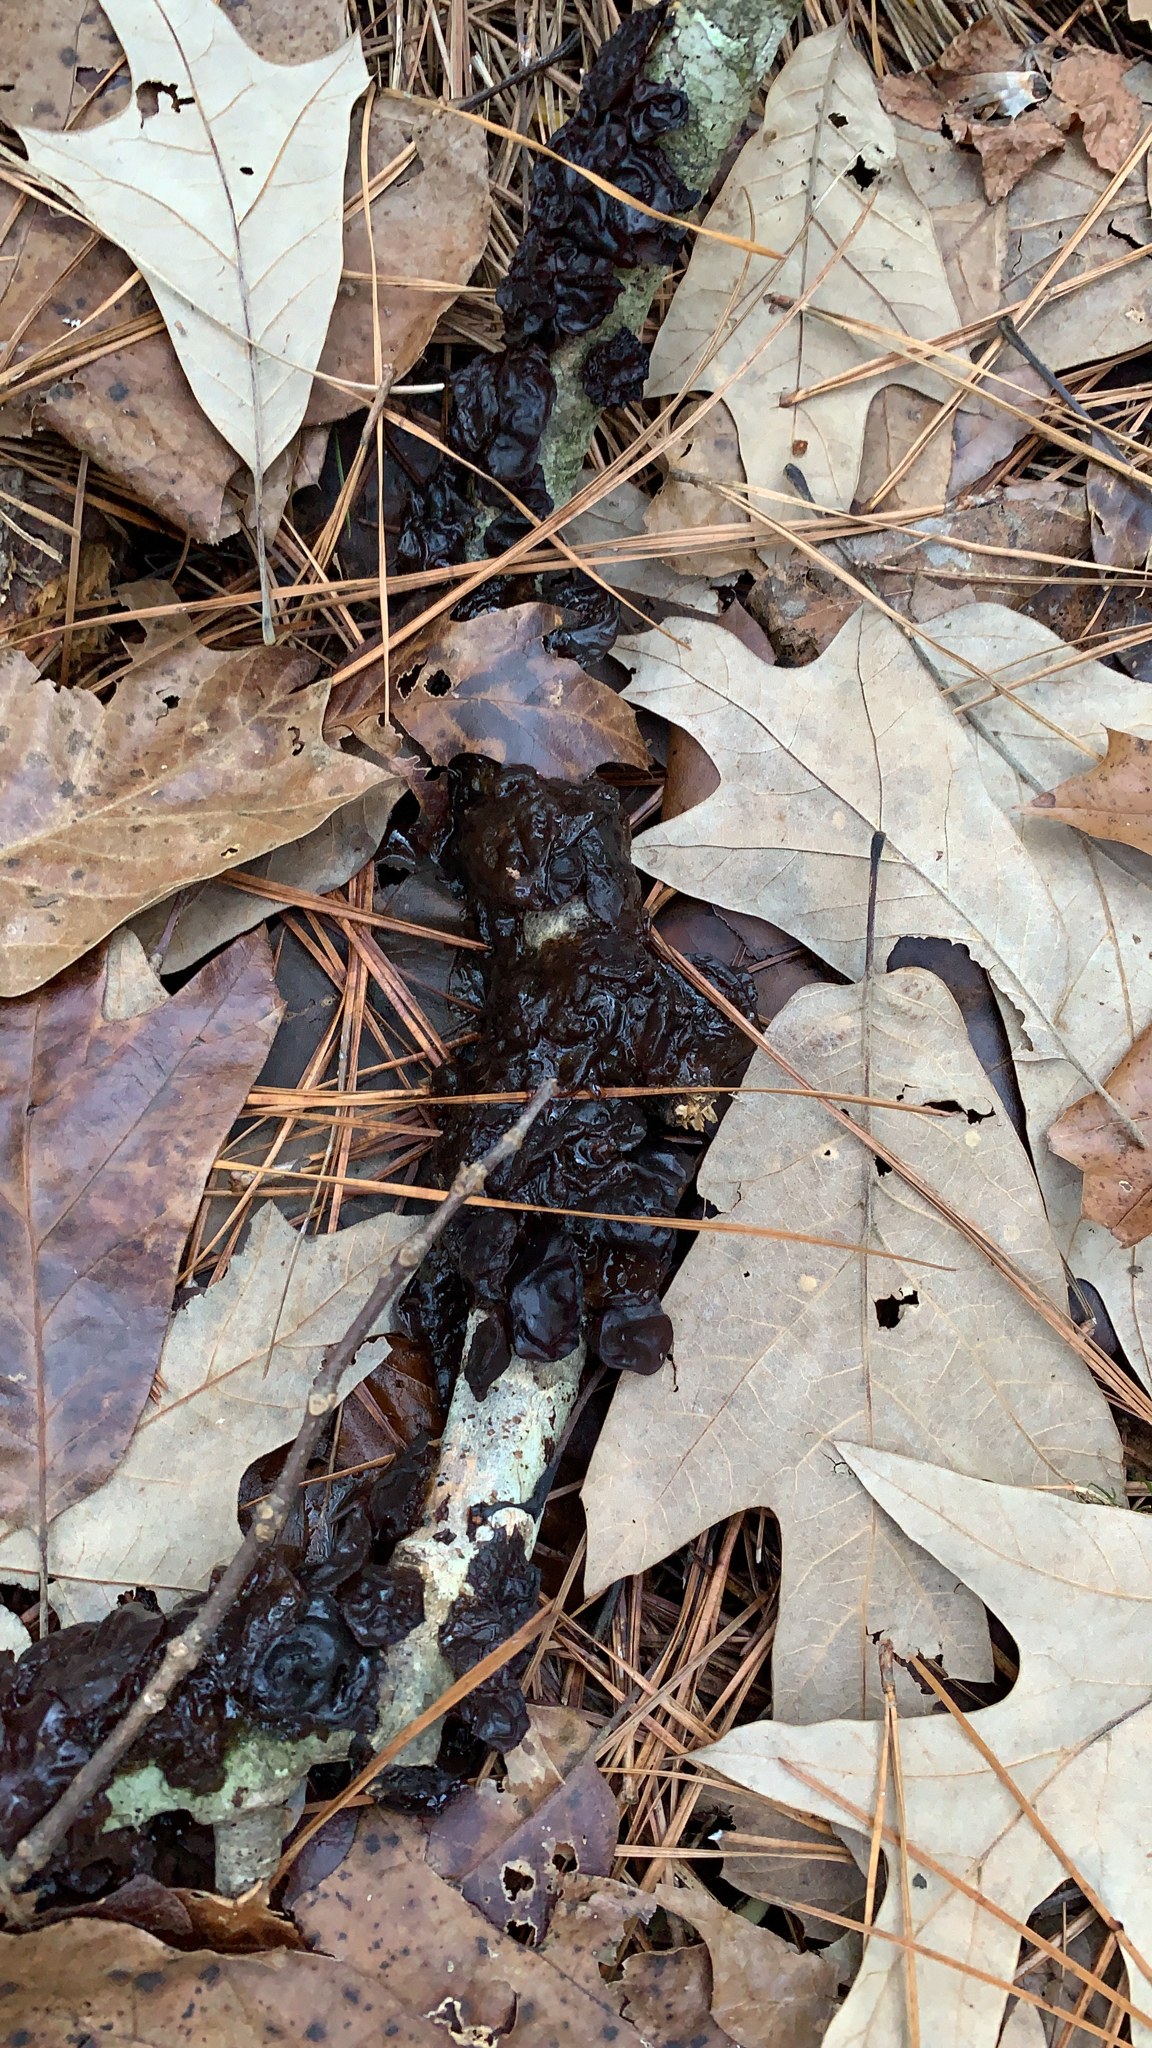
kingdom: Fungi
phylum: Basidiomycota
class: Agaricomycetes
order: Auriculariales
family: Auriculariaceae
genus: Exidia
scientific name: Exidia
